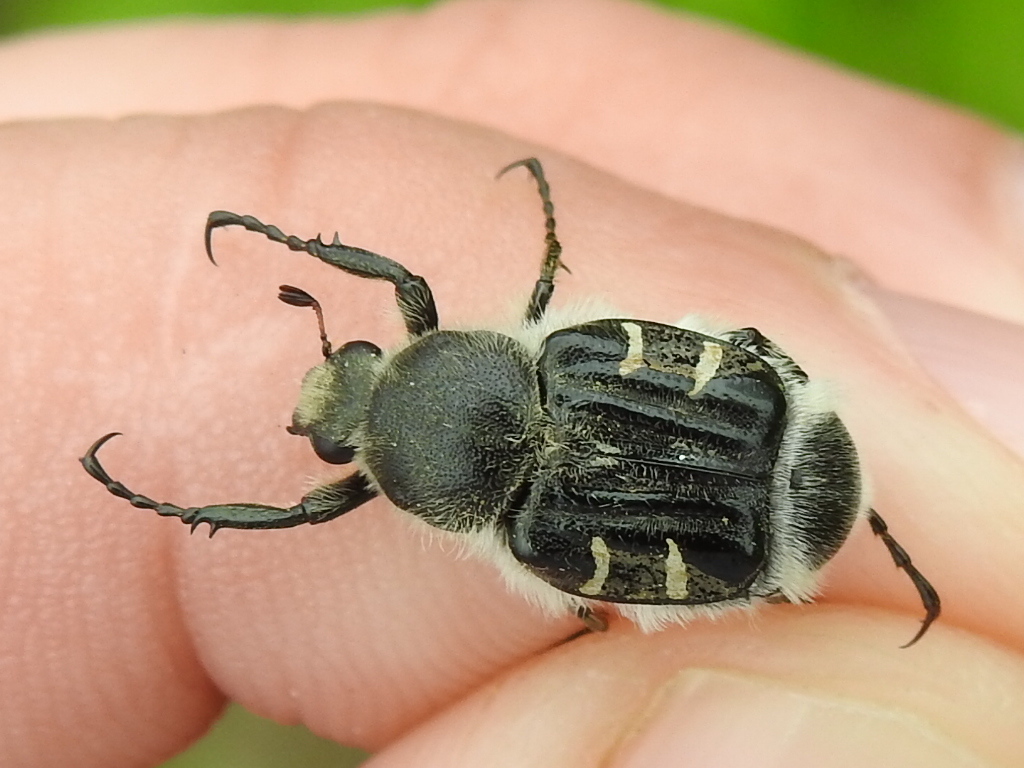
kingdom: Animalia
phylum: Arthropoda
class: Insecta
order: Coleoptera
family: Scarabaeidae
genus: Trichiotinus
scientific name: Trichiotinus texanus
